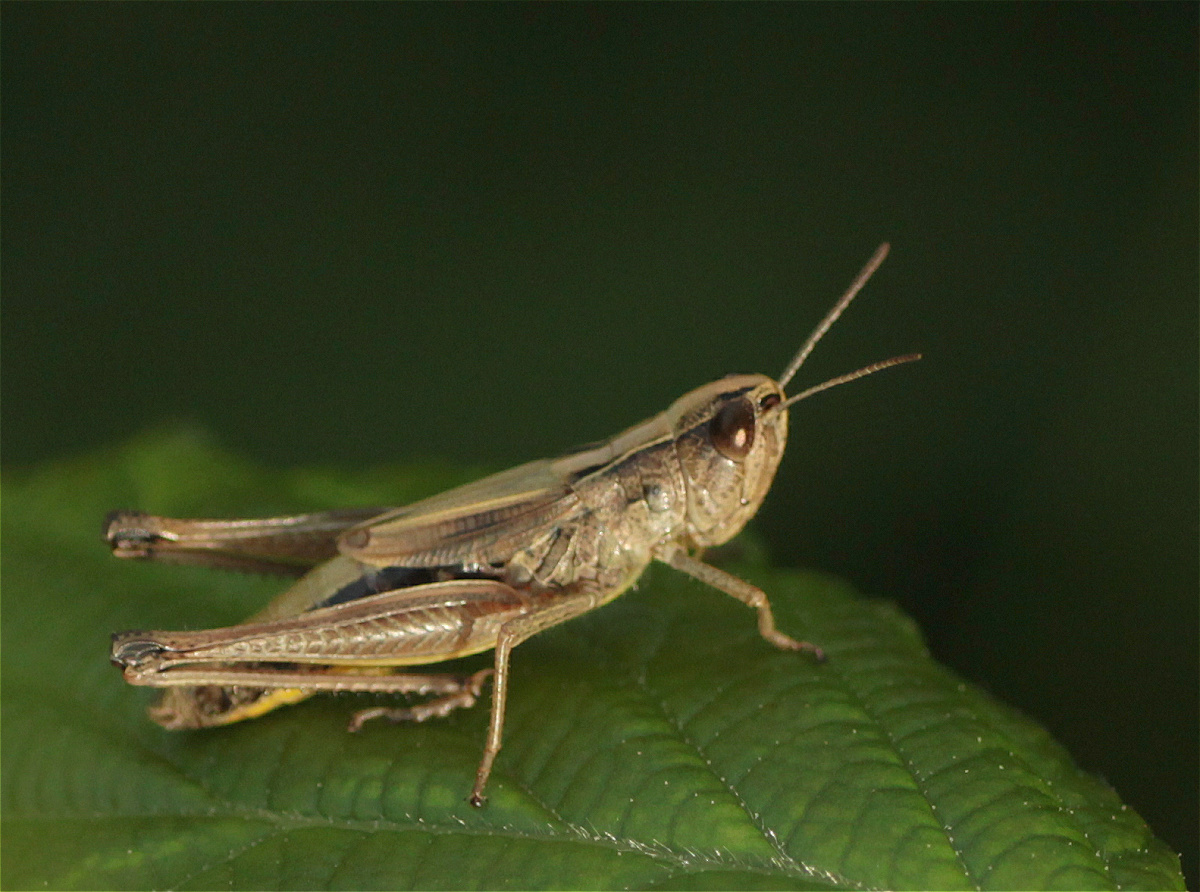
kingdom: Animalia
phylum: Arthropoda
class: Insecta
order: Orthoptera
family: Acrididae
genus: Pseudochorthippus
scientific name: Pseudochorthippus parallelus
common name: Meadow grasshopper
